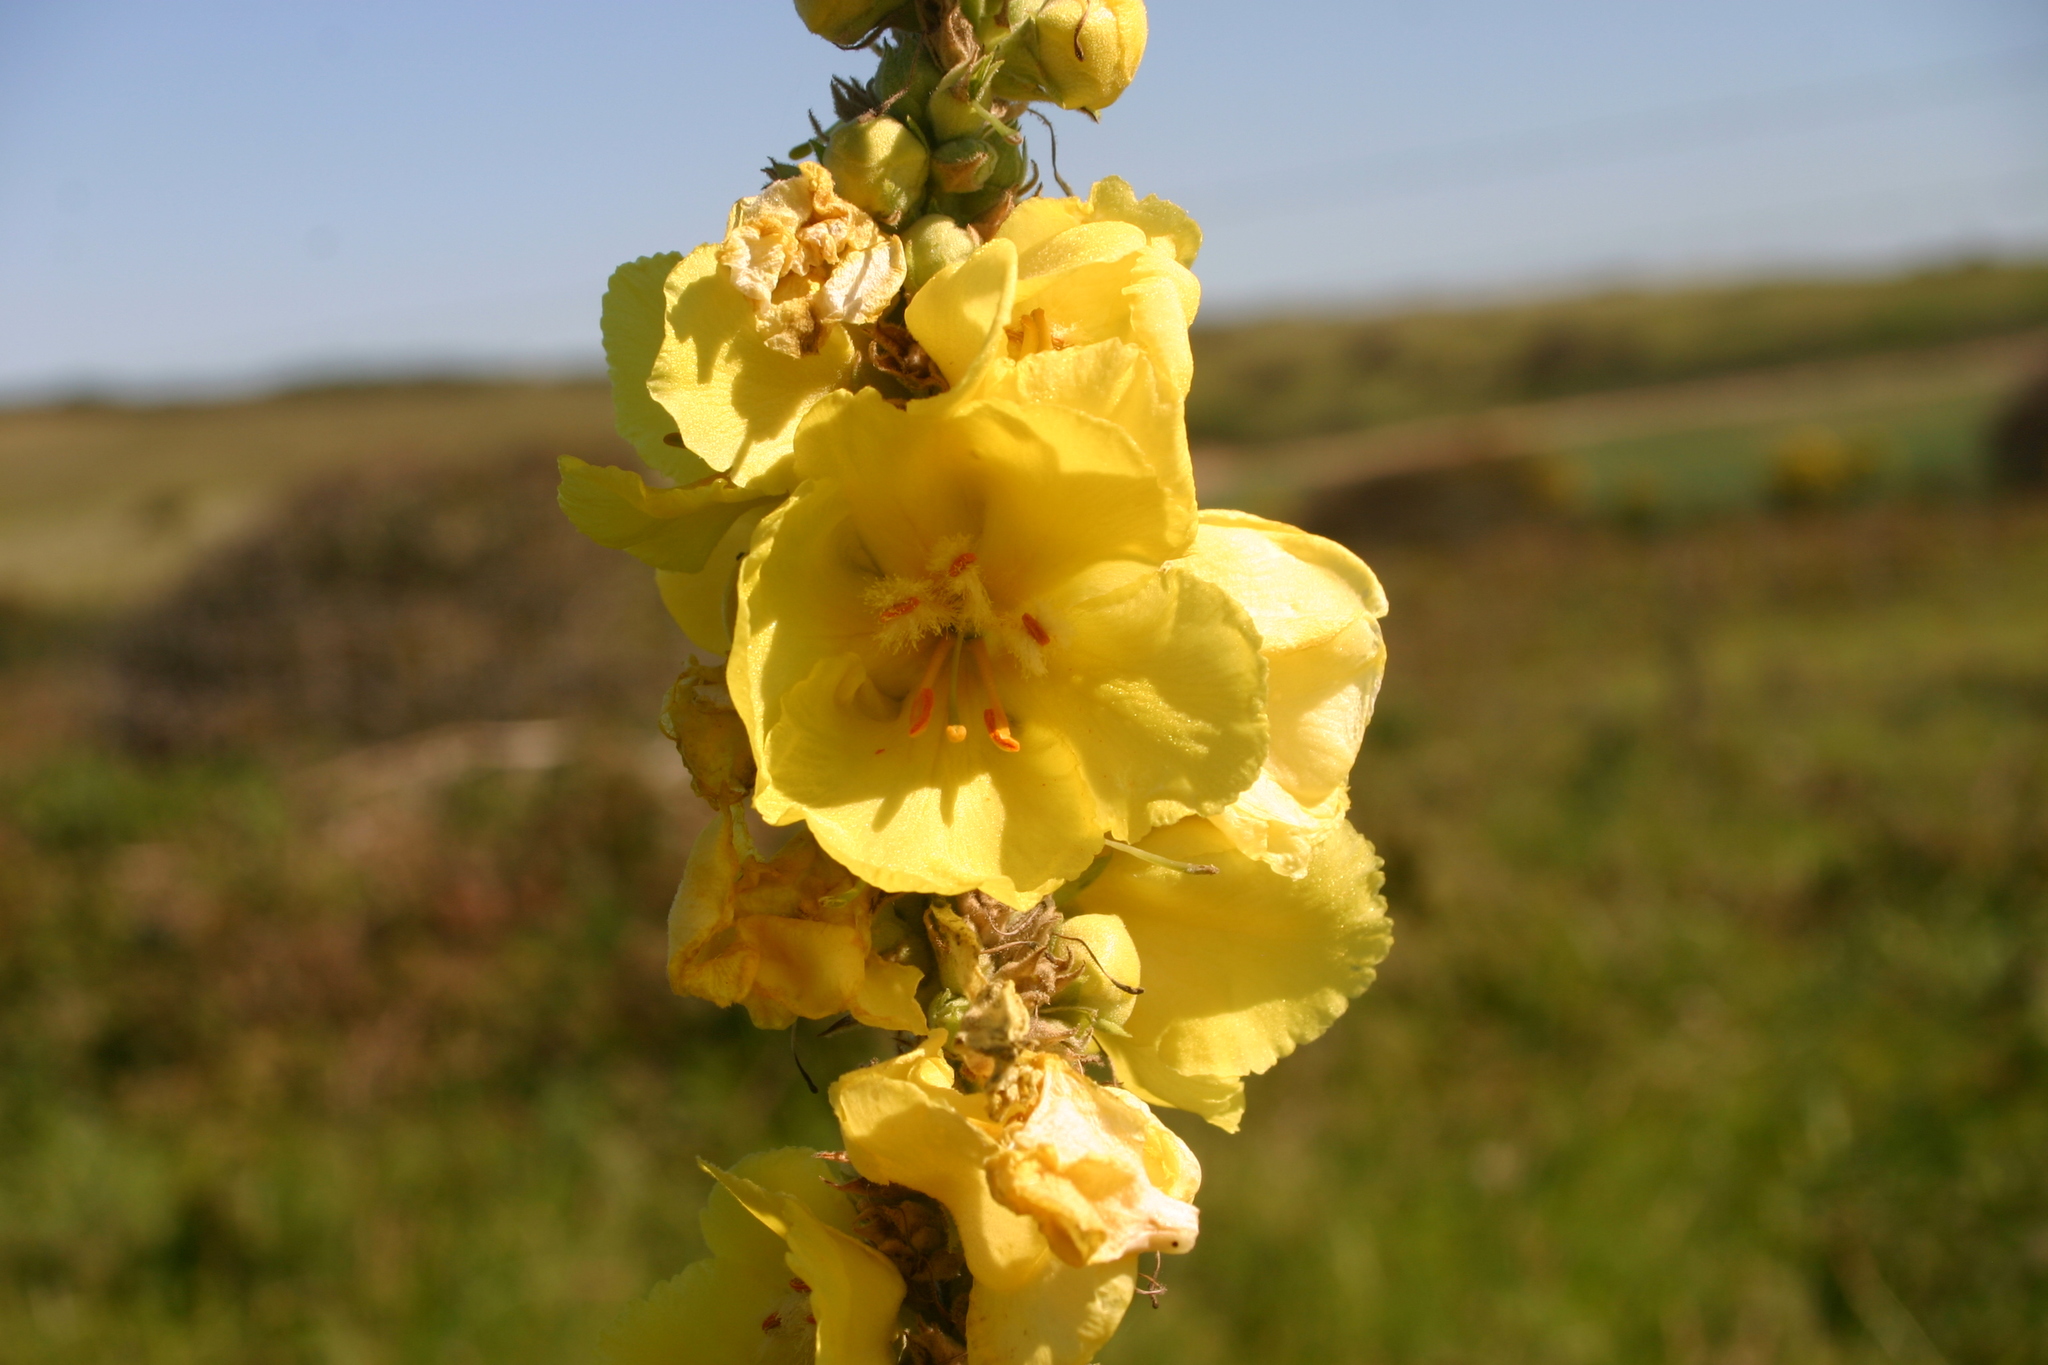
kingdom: Plantae
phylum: Tracheophyta
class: Magnoliopsida
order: Lamiales
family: Scrophulariaceae
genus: Verbascum
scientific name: Verbascum phlomoides
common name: Orange mullein
